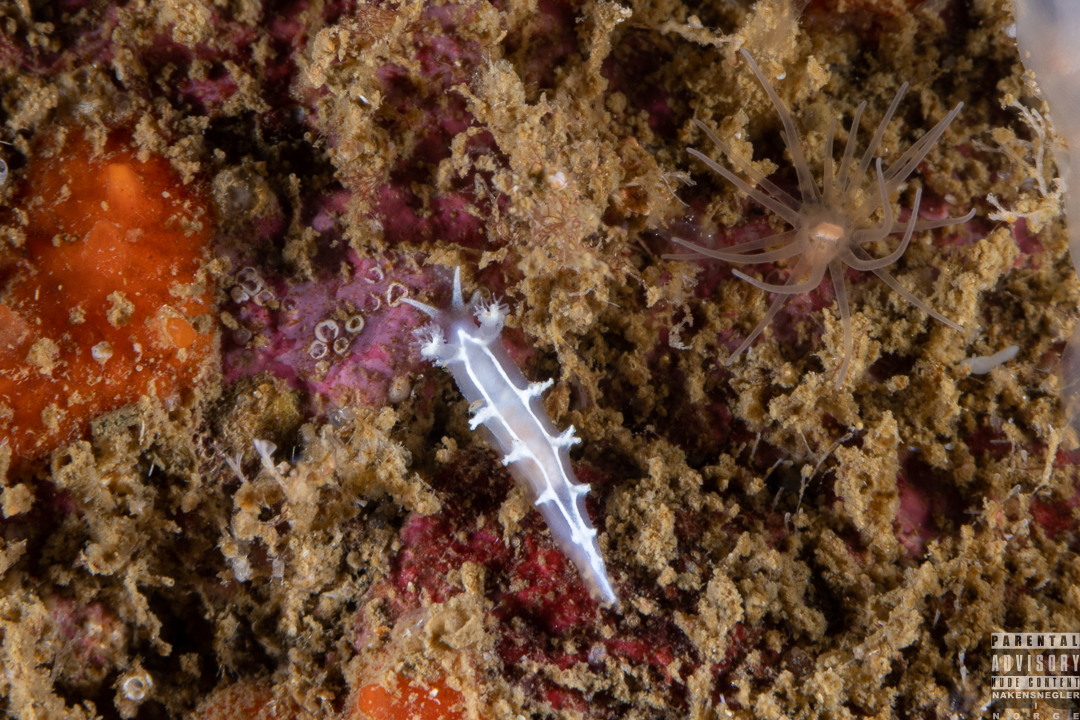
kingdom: Animalia
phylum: Mollusca
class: Gastropoda
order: Nudibranchia
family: Tritoniidae
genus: Duvaucelia
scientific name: Duvaucelia lineata
